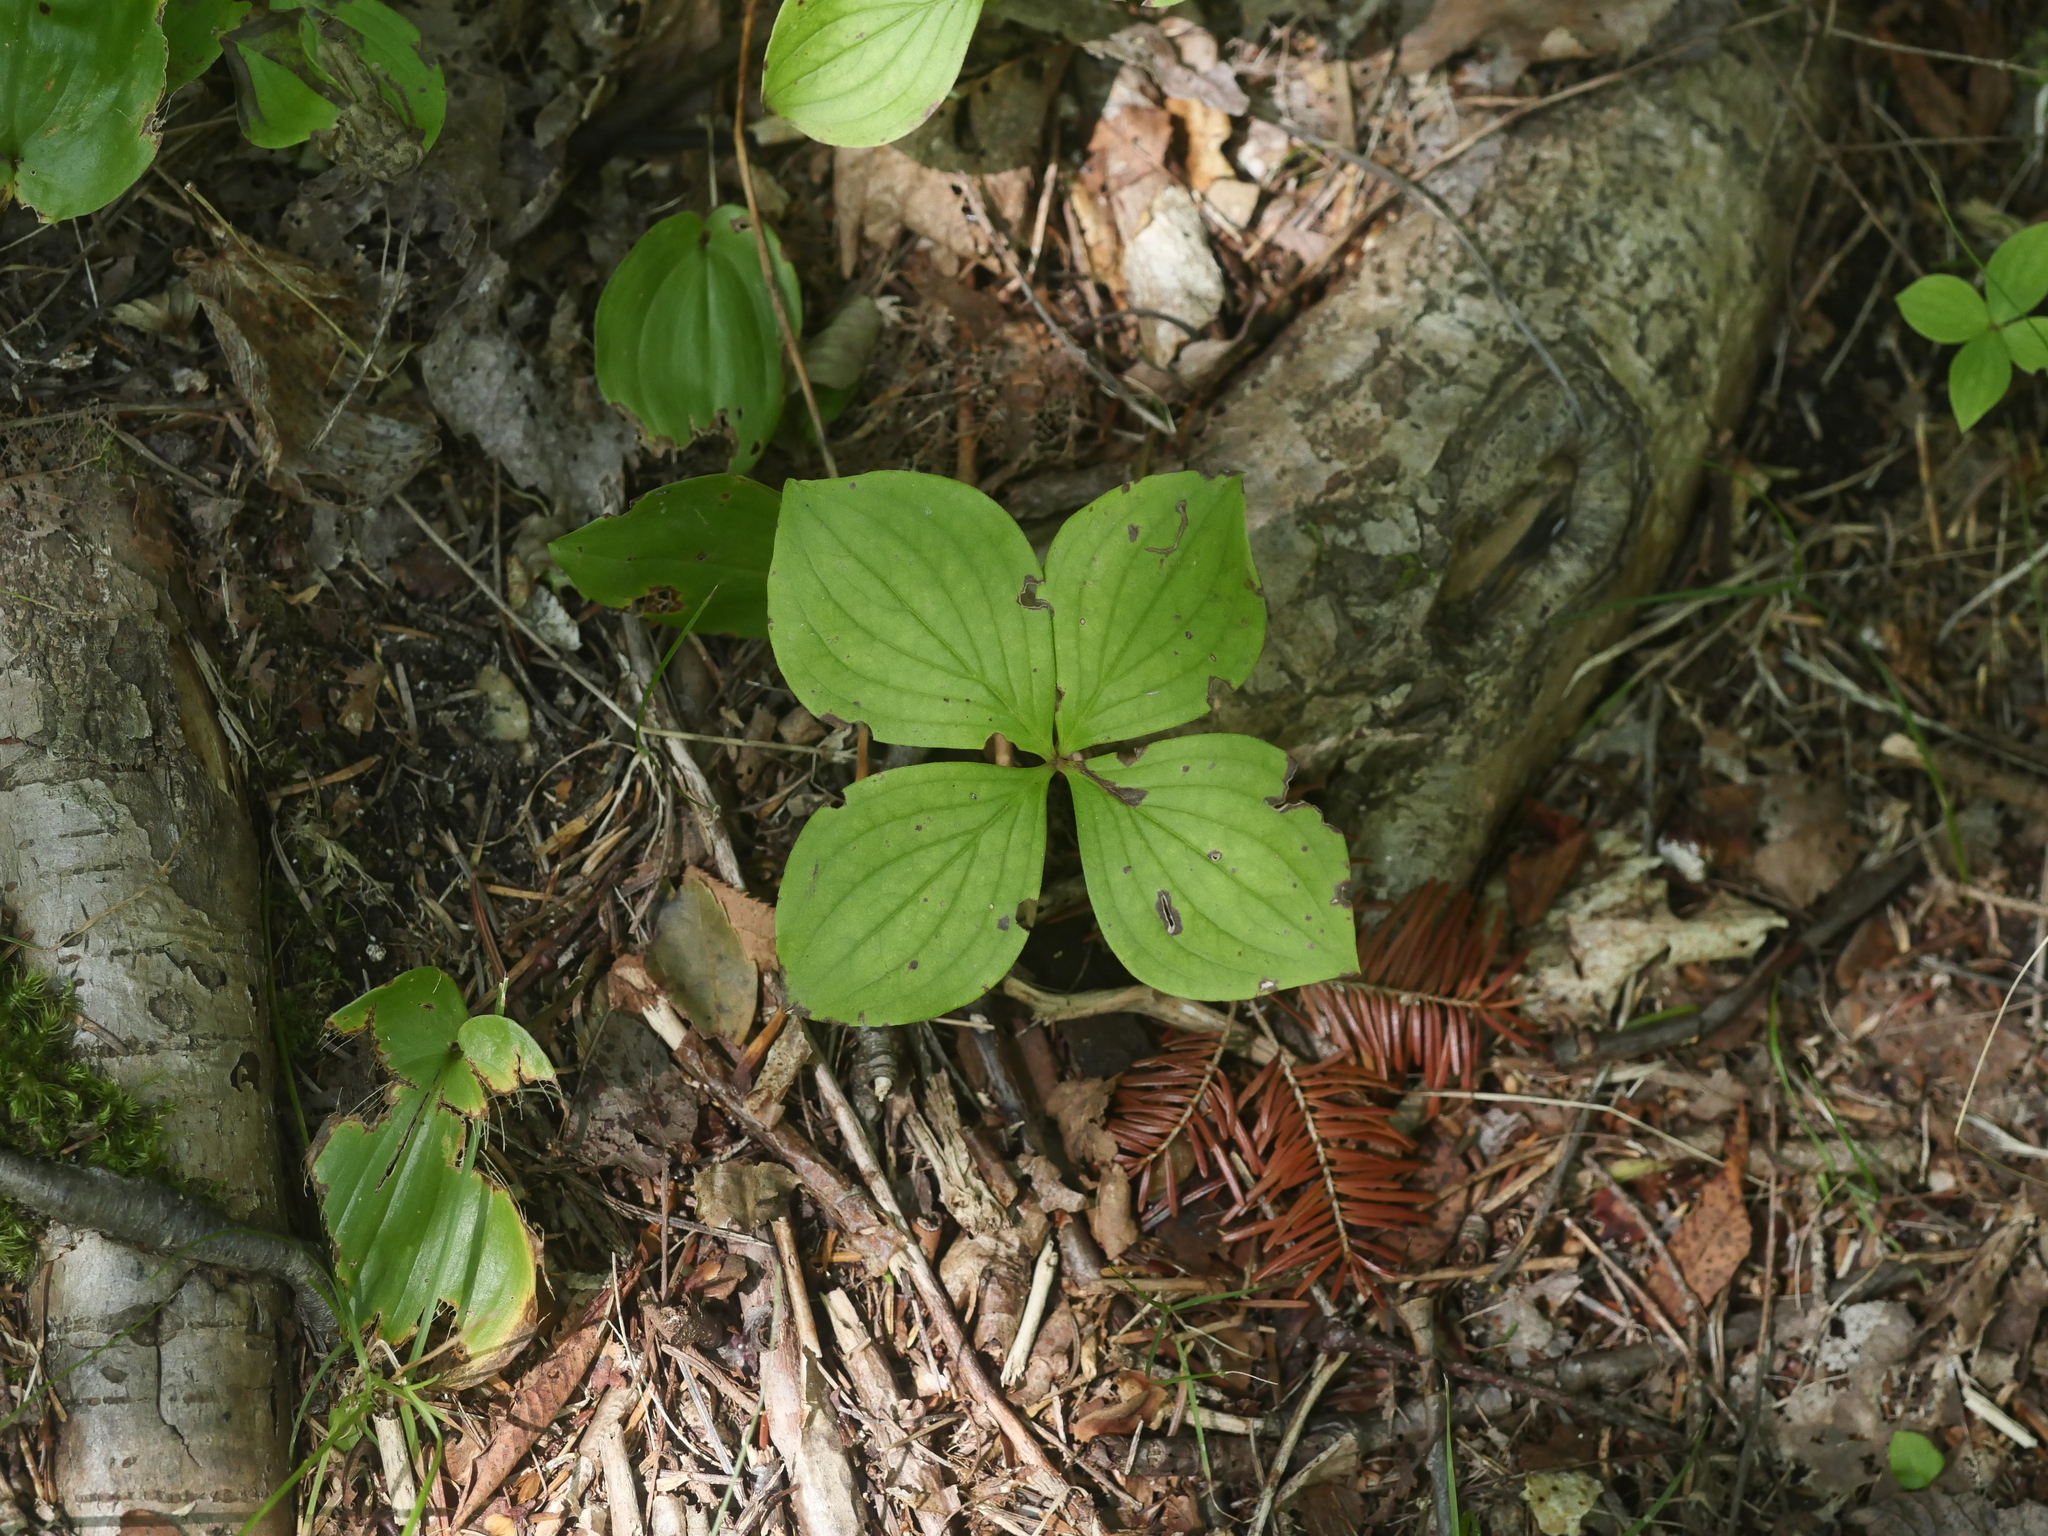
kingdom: Plantae
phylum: Tracheophyta
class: Magnoliopsida
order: Cornales
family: Cornaceae
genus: Cornus
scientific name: Cornus canadensis
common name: Creeping dogwood
